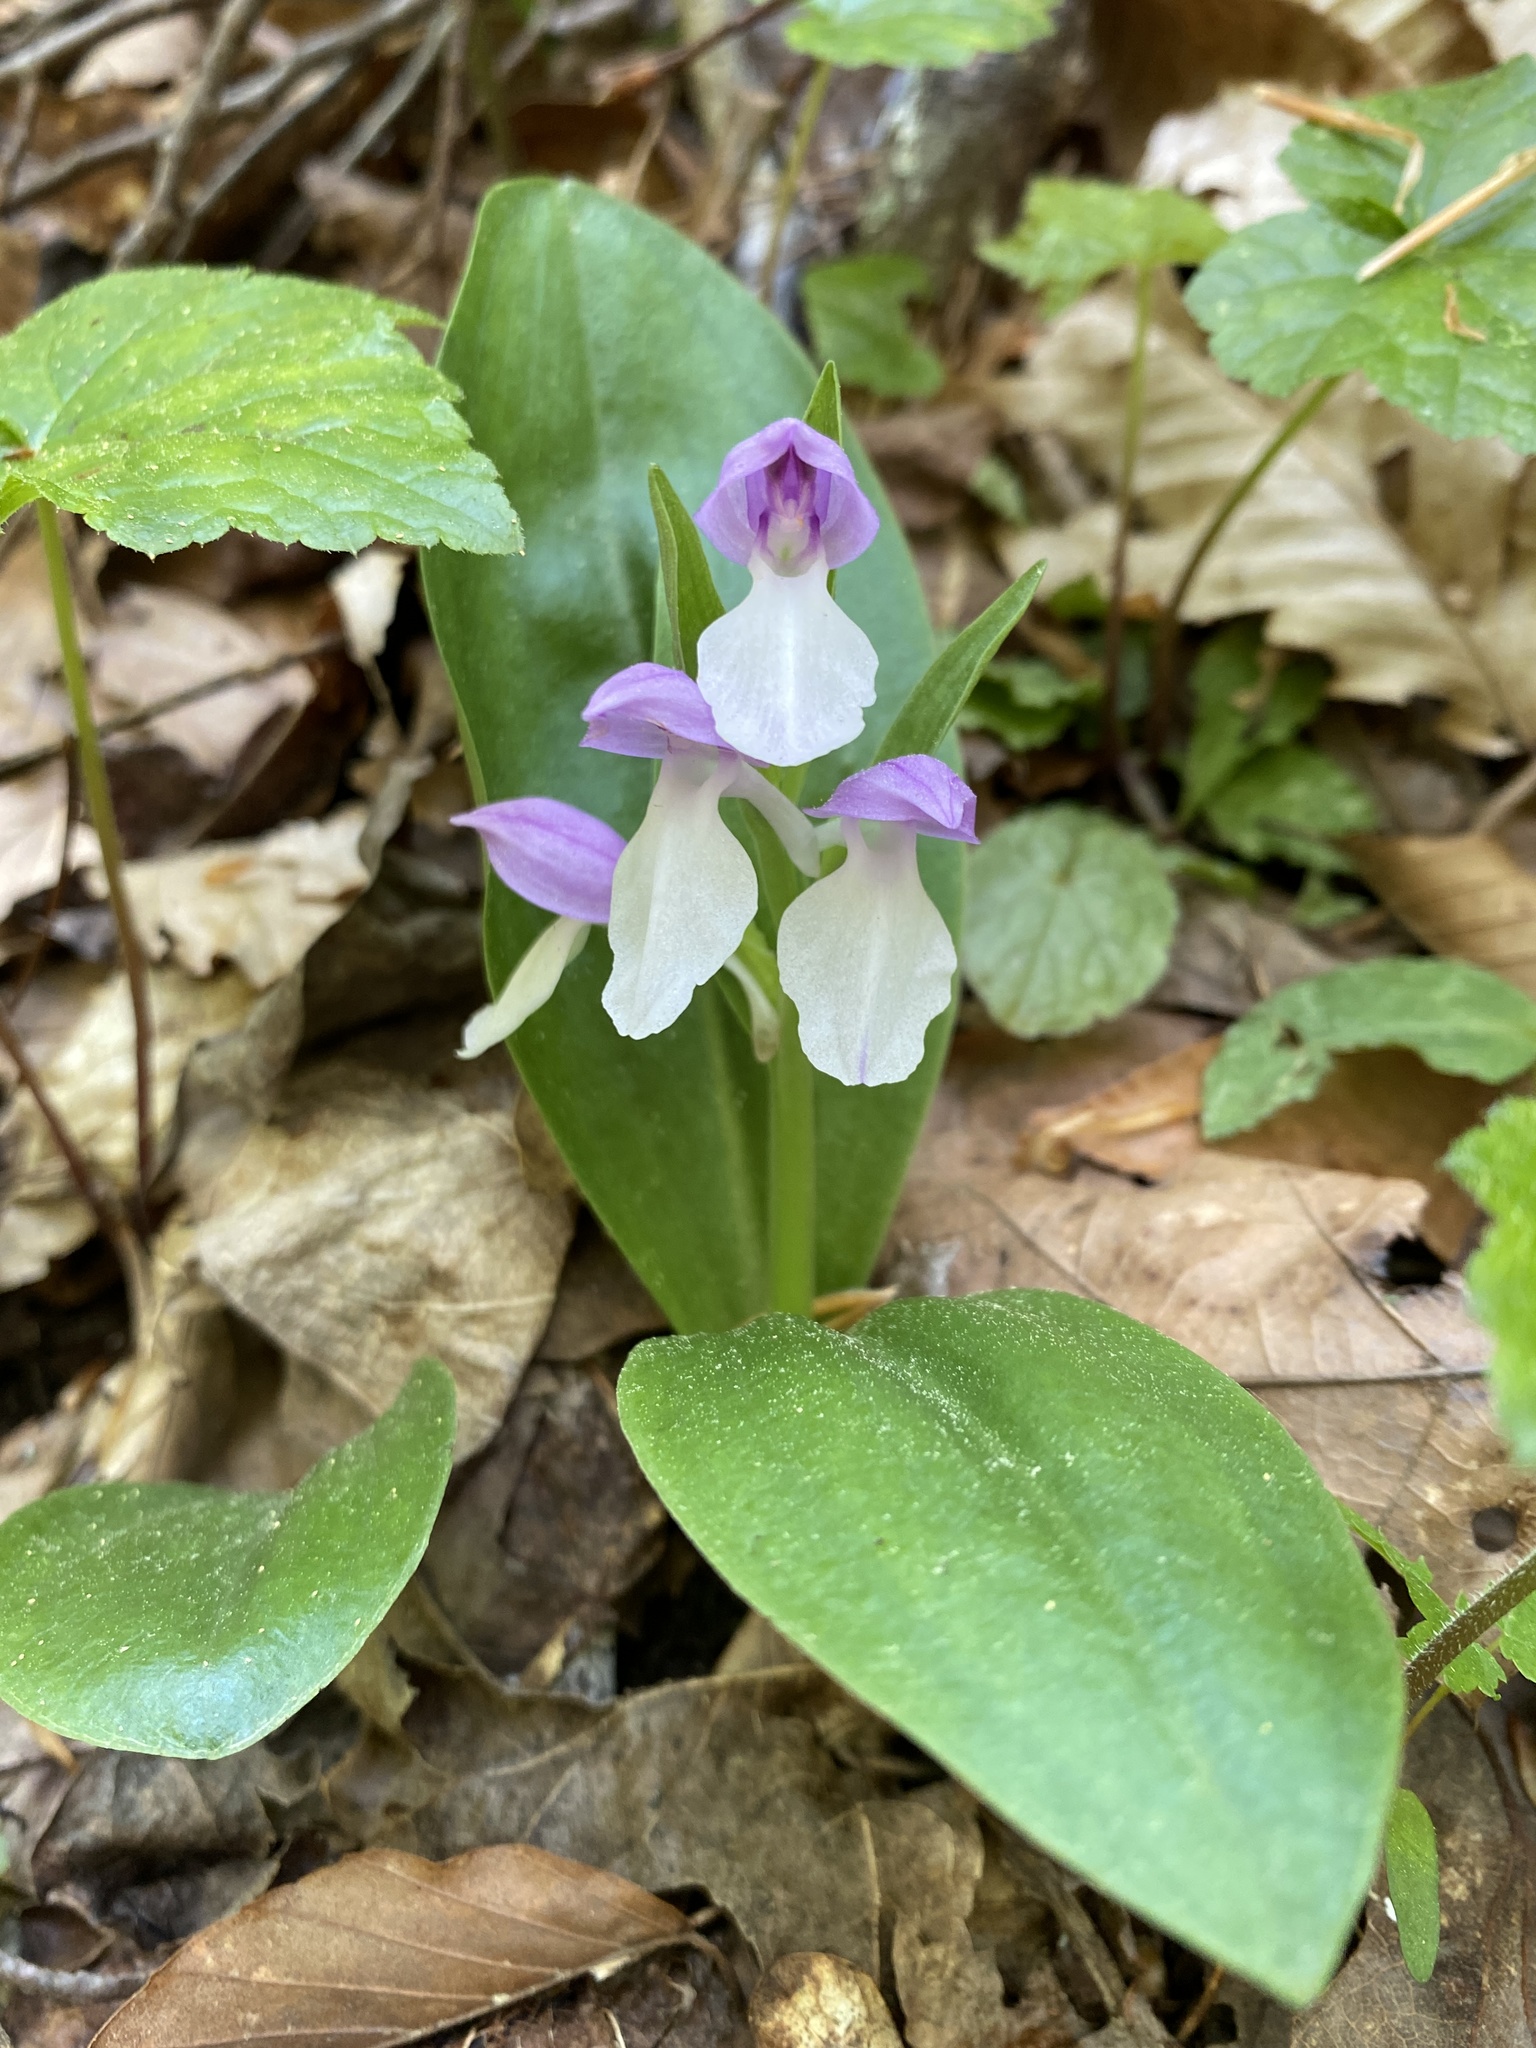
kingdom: Plantae
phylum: Tracheophyta
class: Liliopsida
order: Asparagales
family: Orchidaceae
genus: Galearis
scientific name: Galearis spectabilis
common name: Purple-hooded orchis
